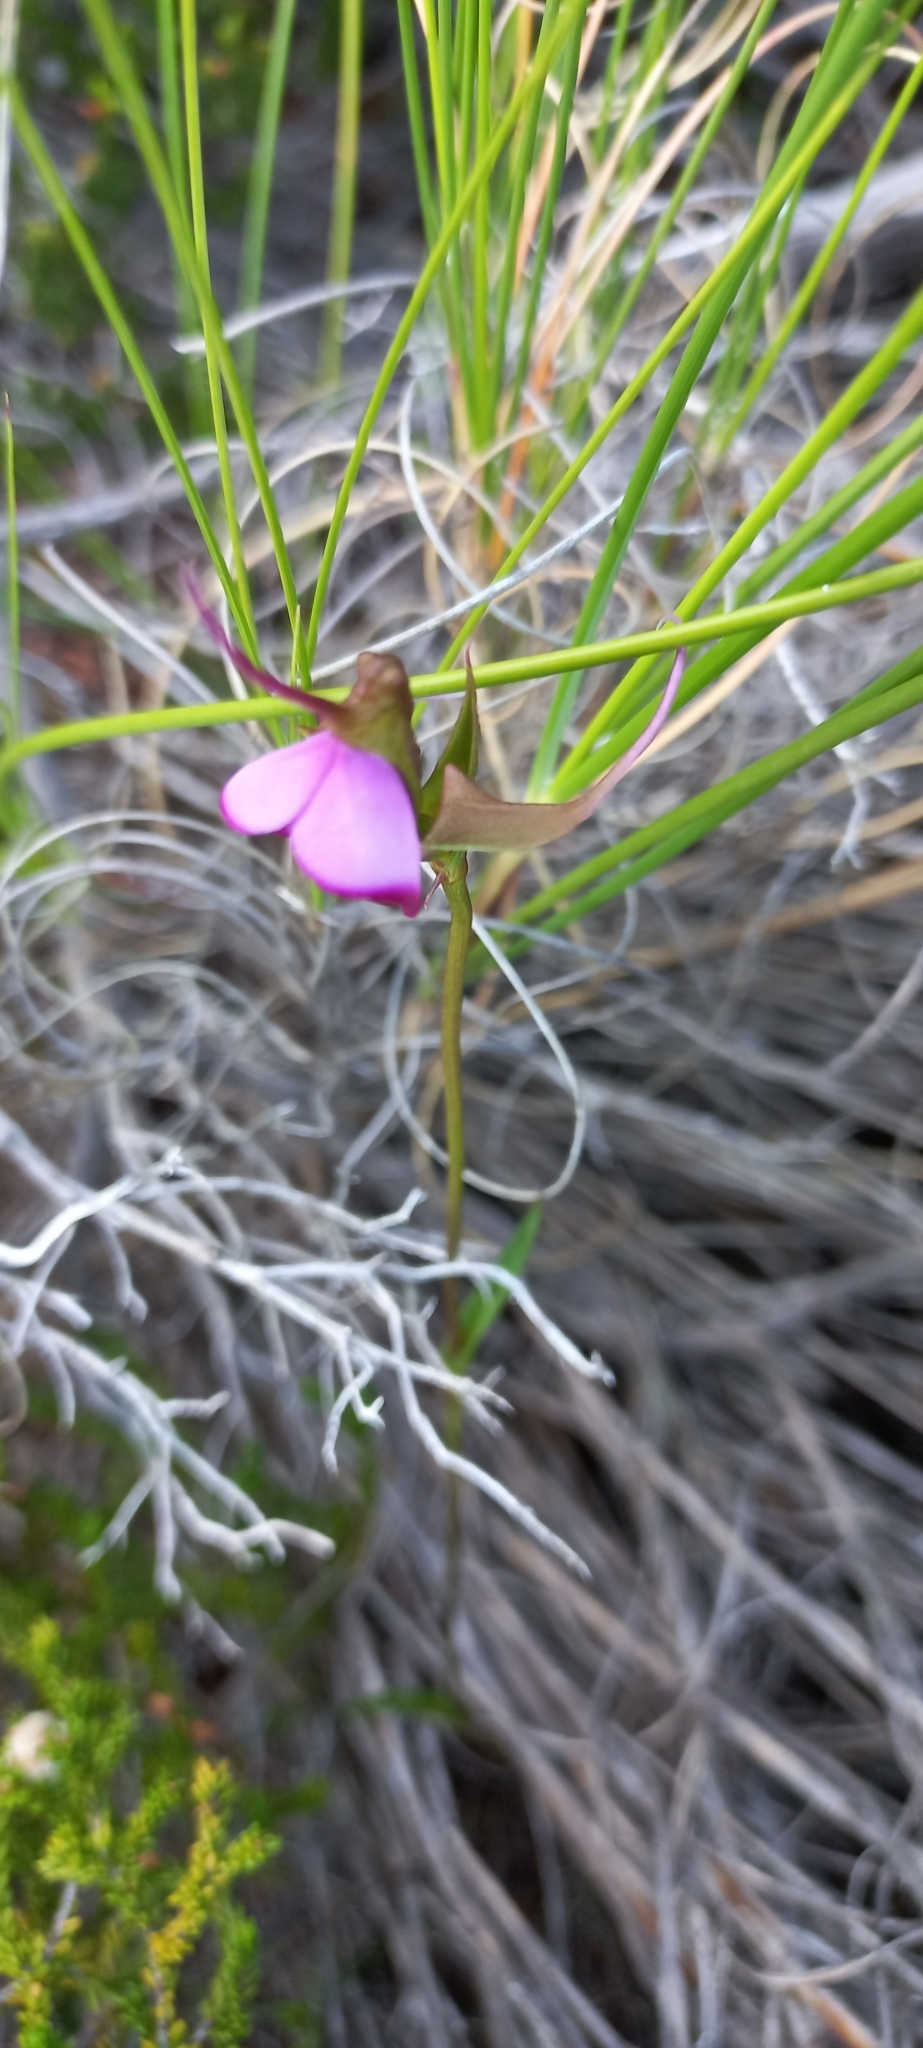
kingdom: Plantae
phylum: Tracheophyta
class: Liliopsida
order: Asparagales
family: Orchidaceae
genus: Disperis
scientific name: Disperis capensis
